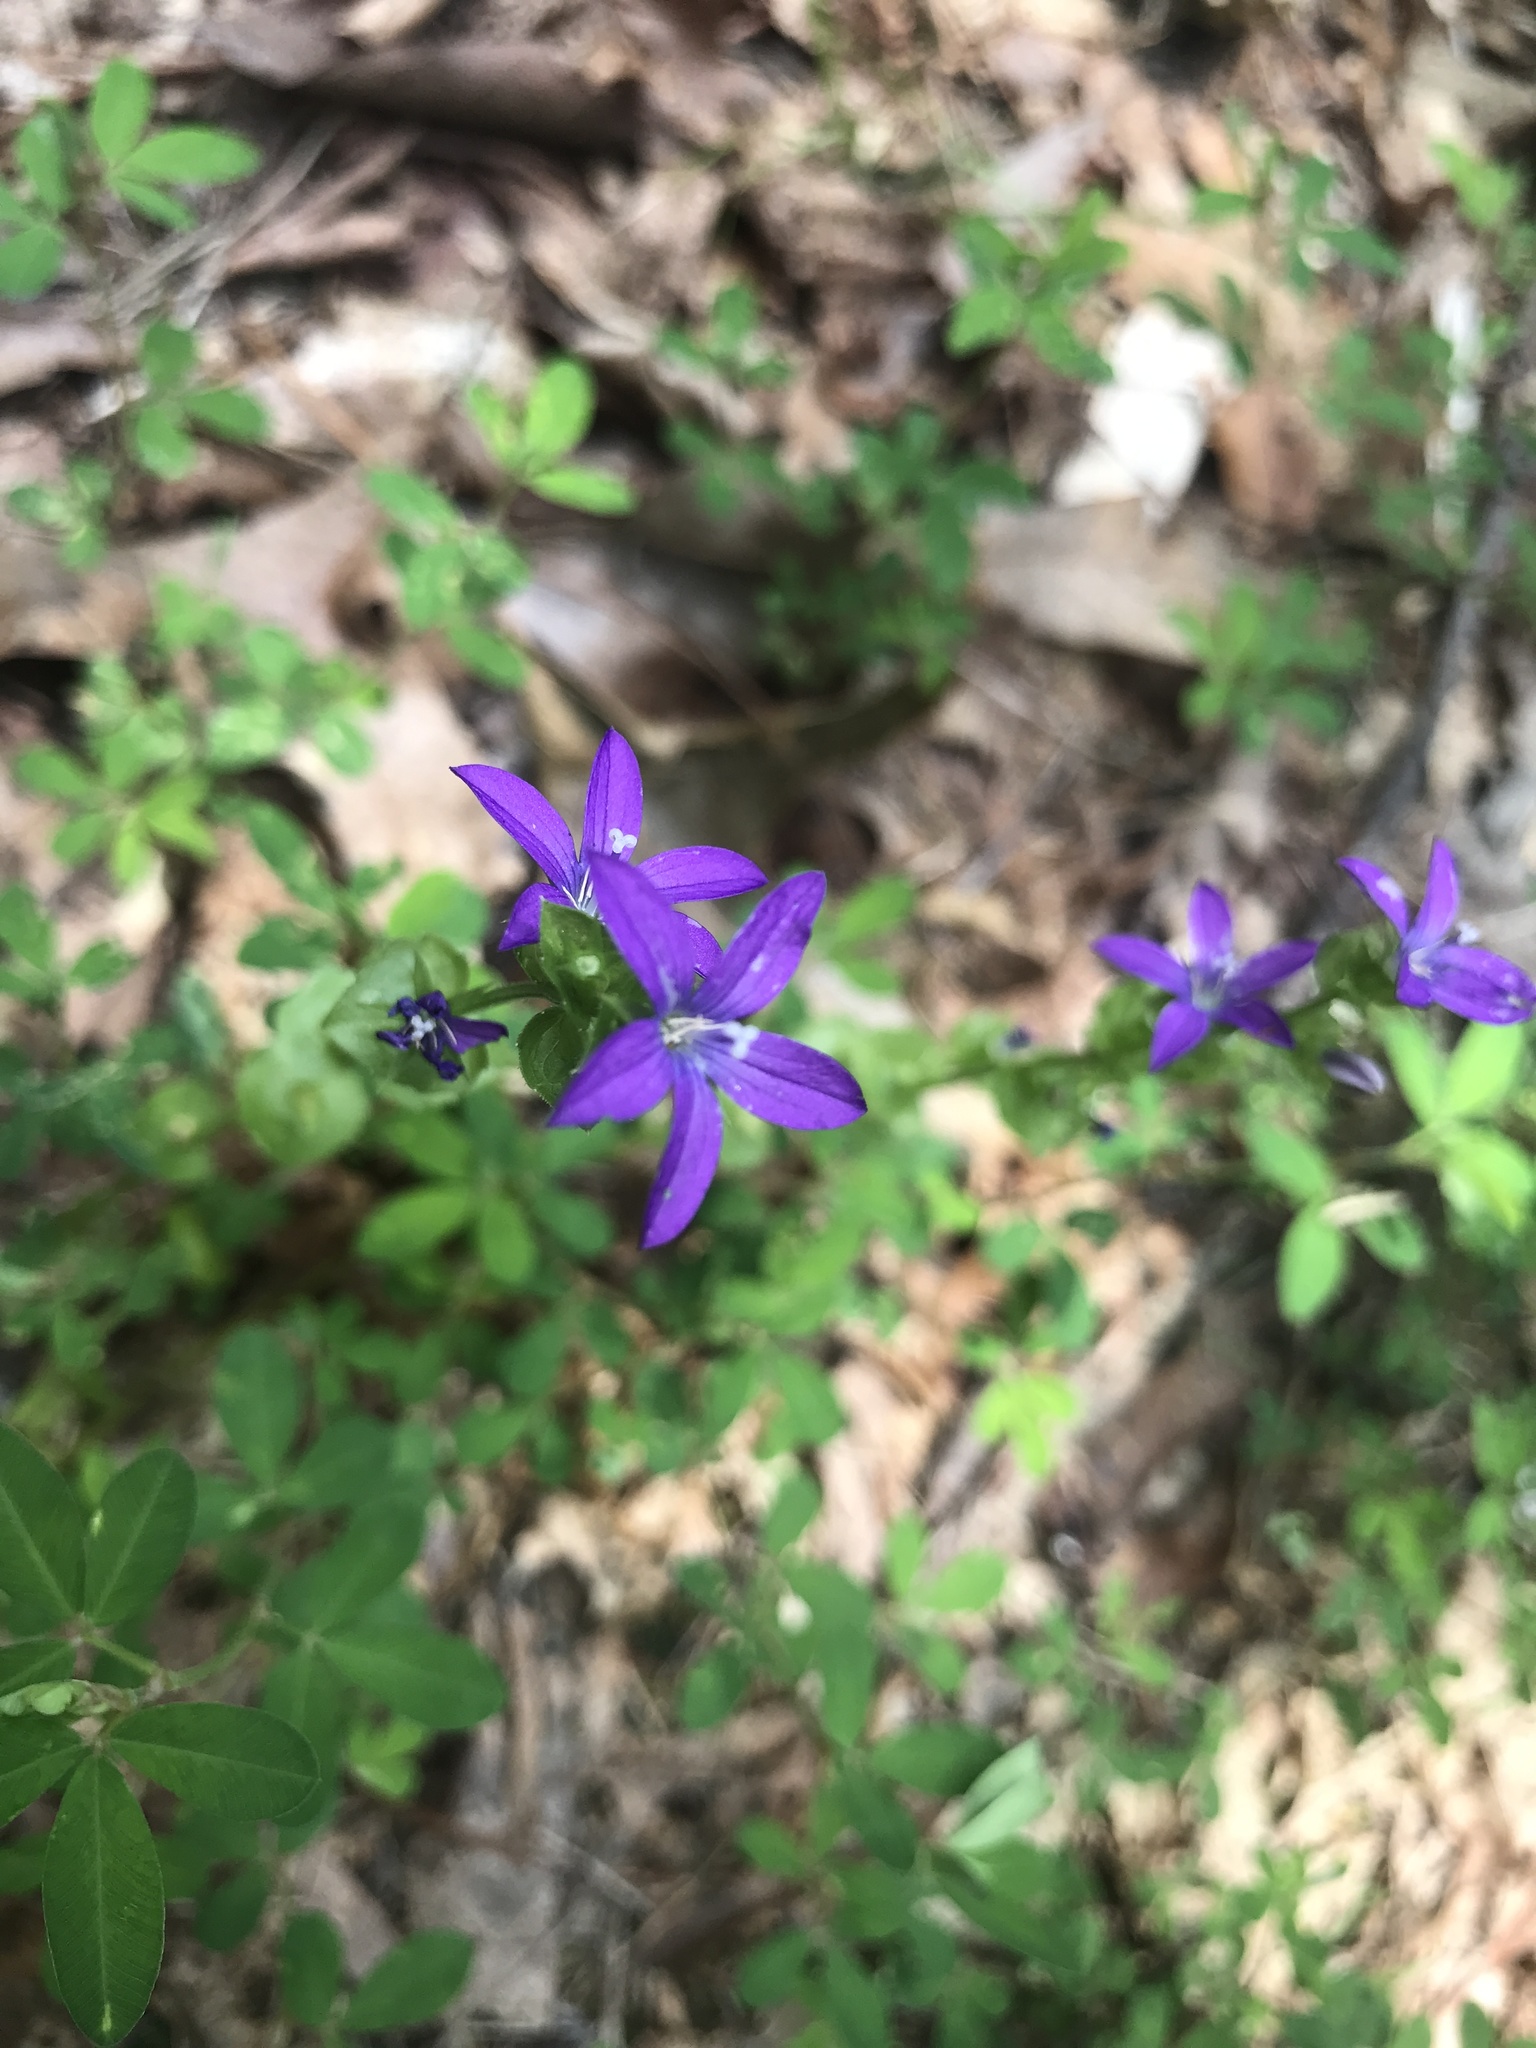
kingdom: Plantae
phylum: Tracheophyta
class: Magnoliopsida
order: Asterales
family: Campanulaceae
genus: Triodanis
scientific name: Triodanis perfoliata
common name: Clasping venus' looking-glass
